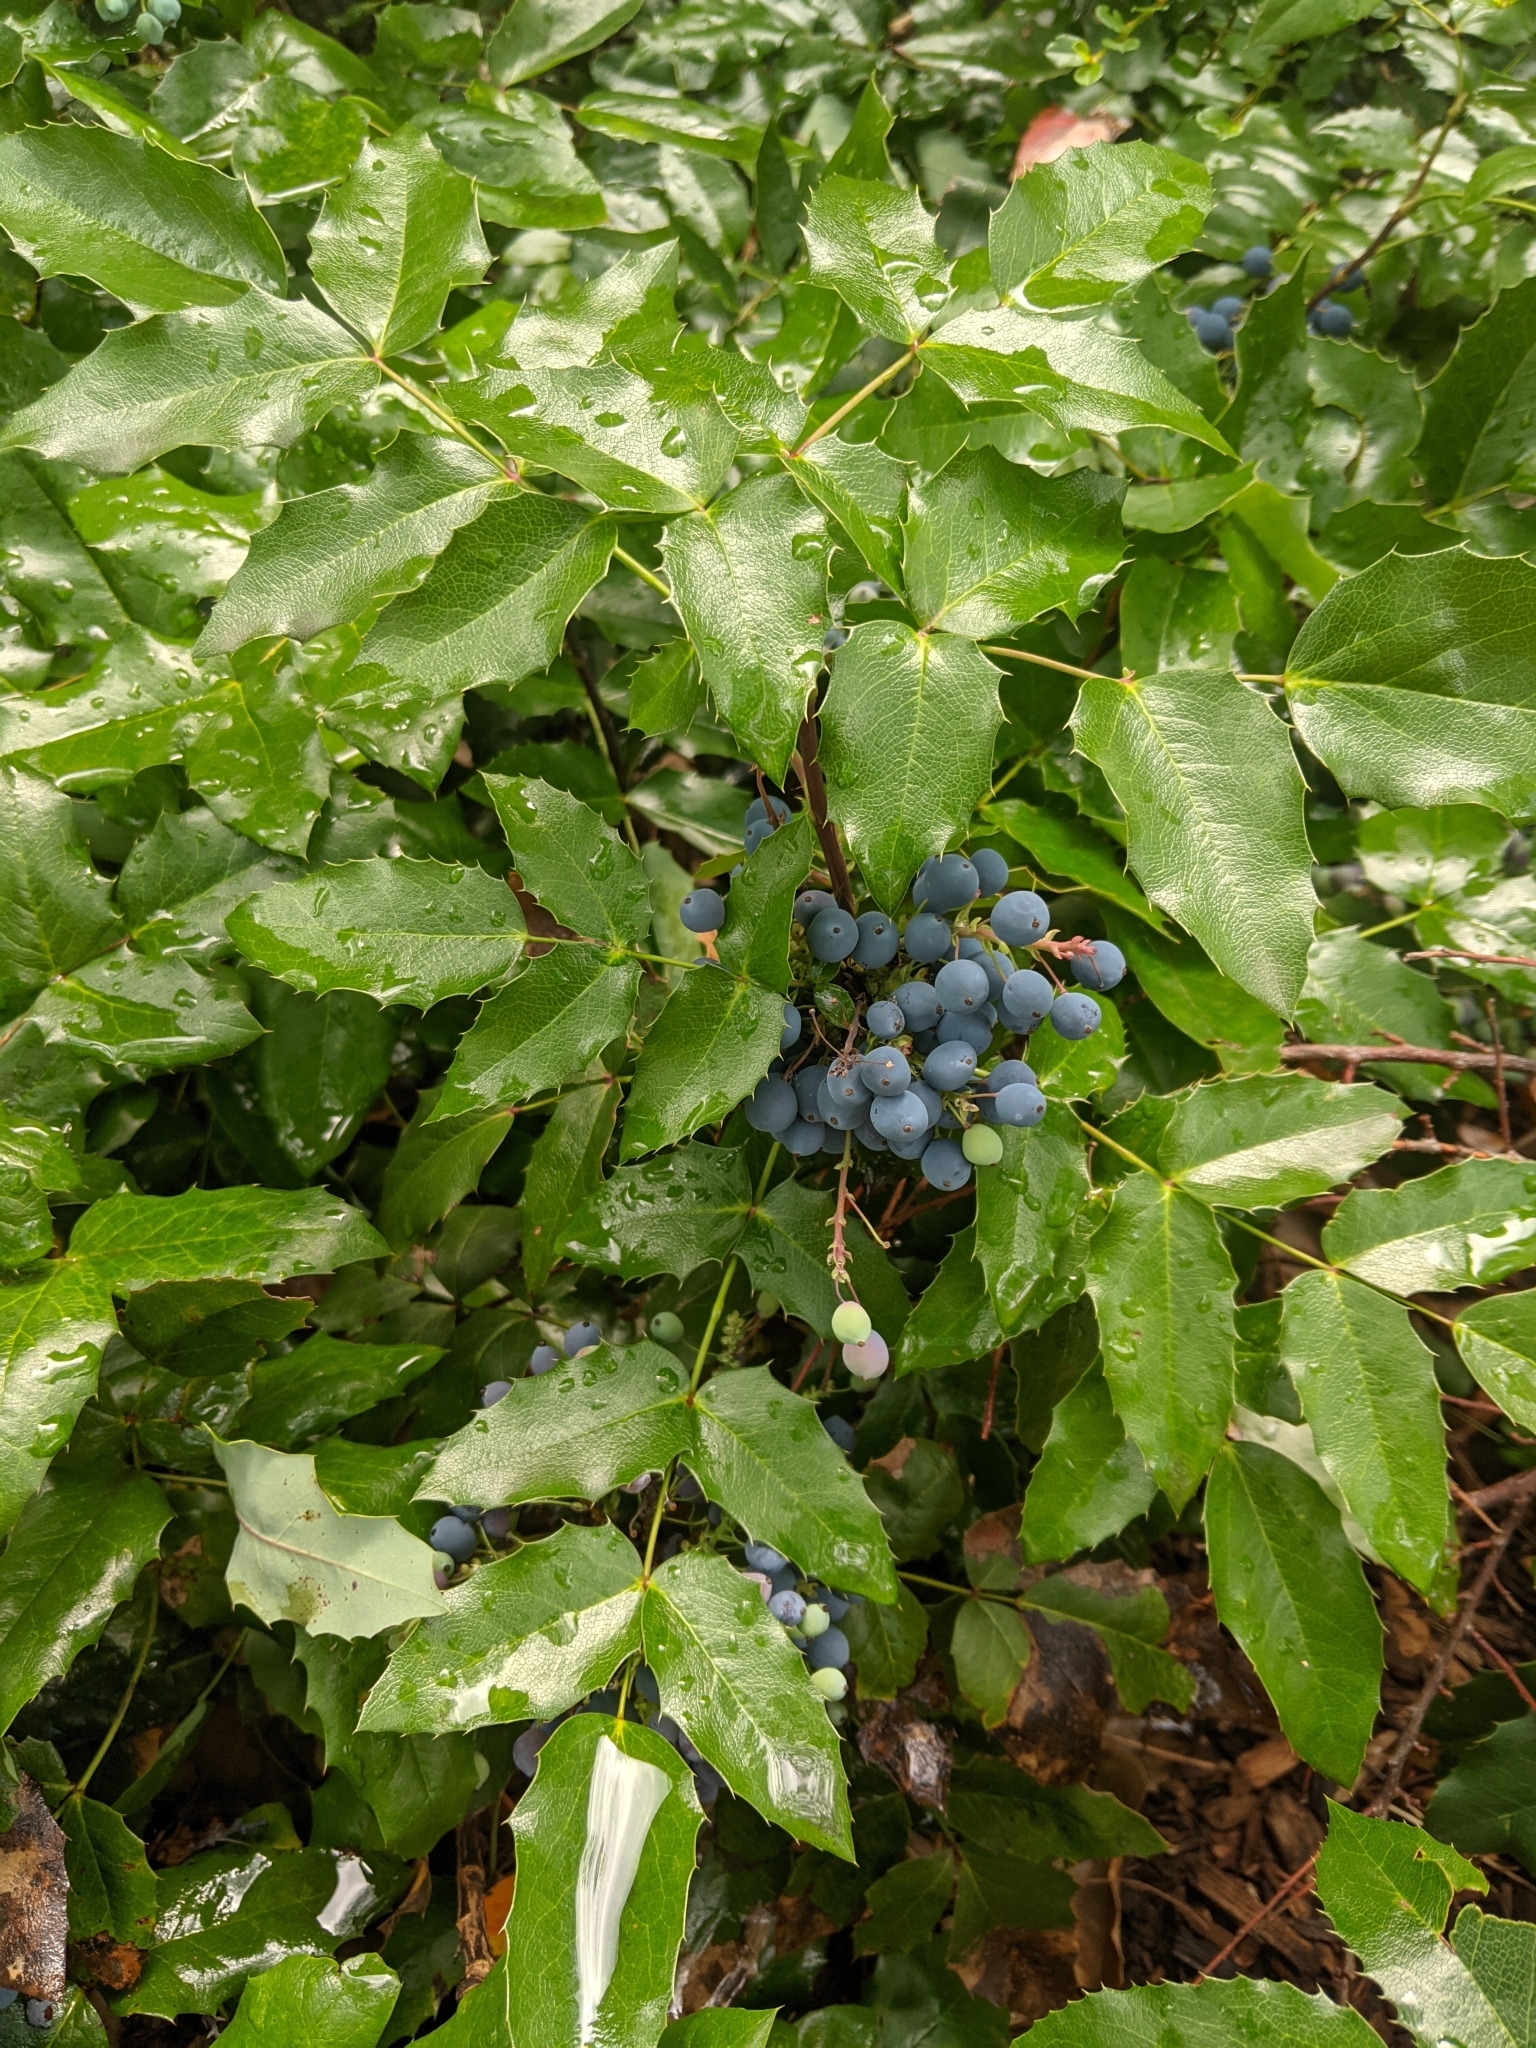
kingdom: Plantae
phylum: Tracheophyta
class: Magnoliopsida
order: Ranunculales
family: Berberidaceae
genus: Mahonia
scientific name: Mahonia aquifolium
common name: Oregon-grape
